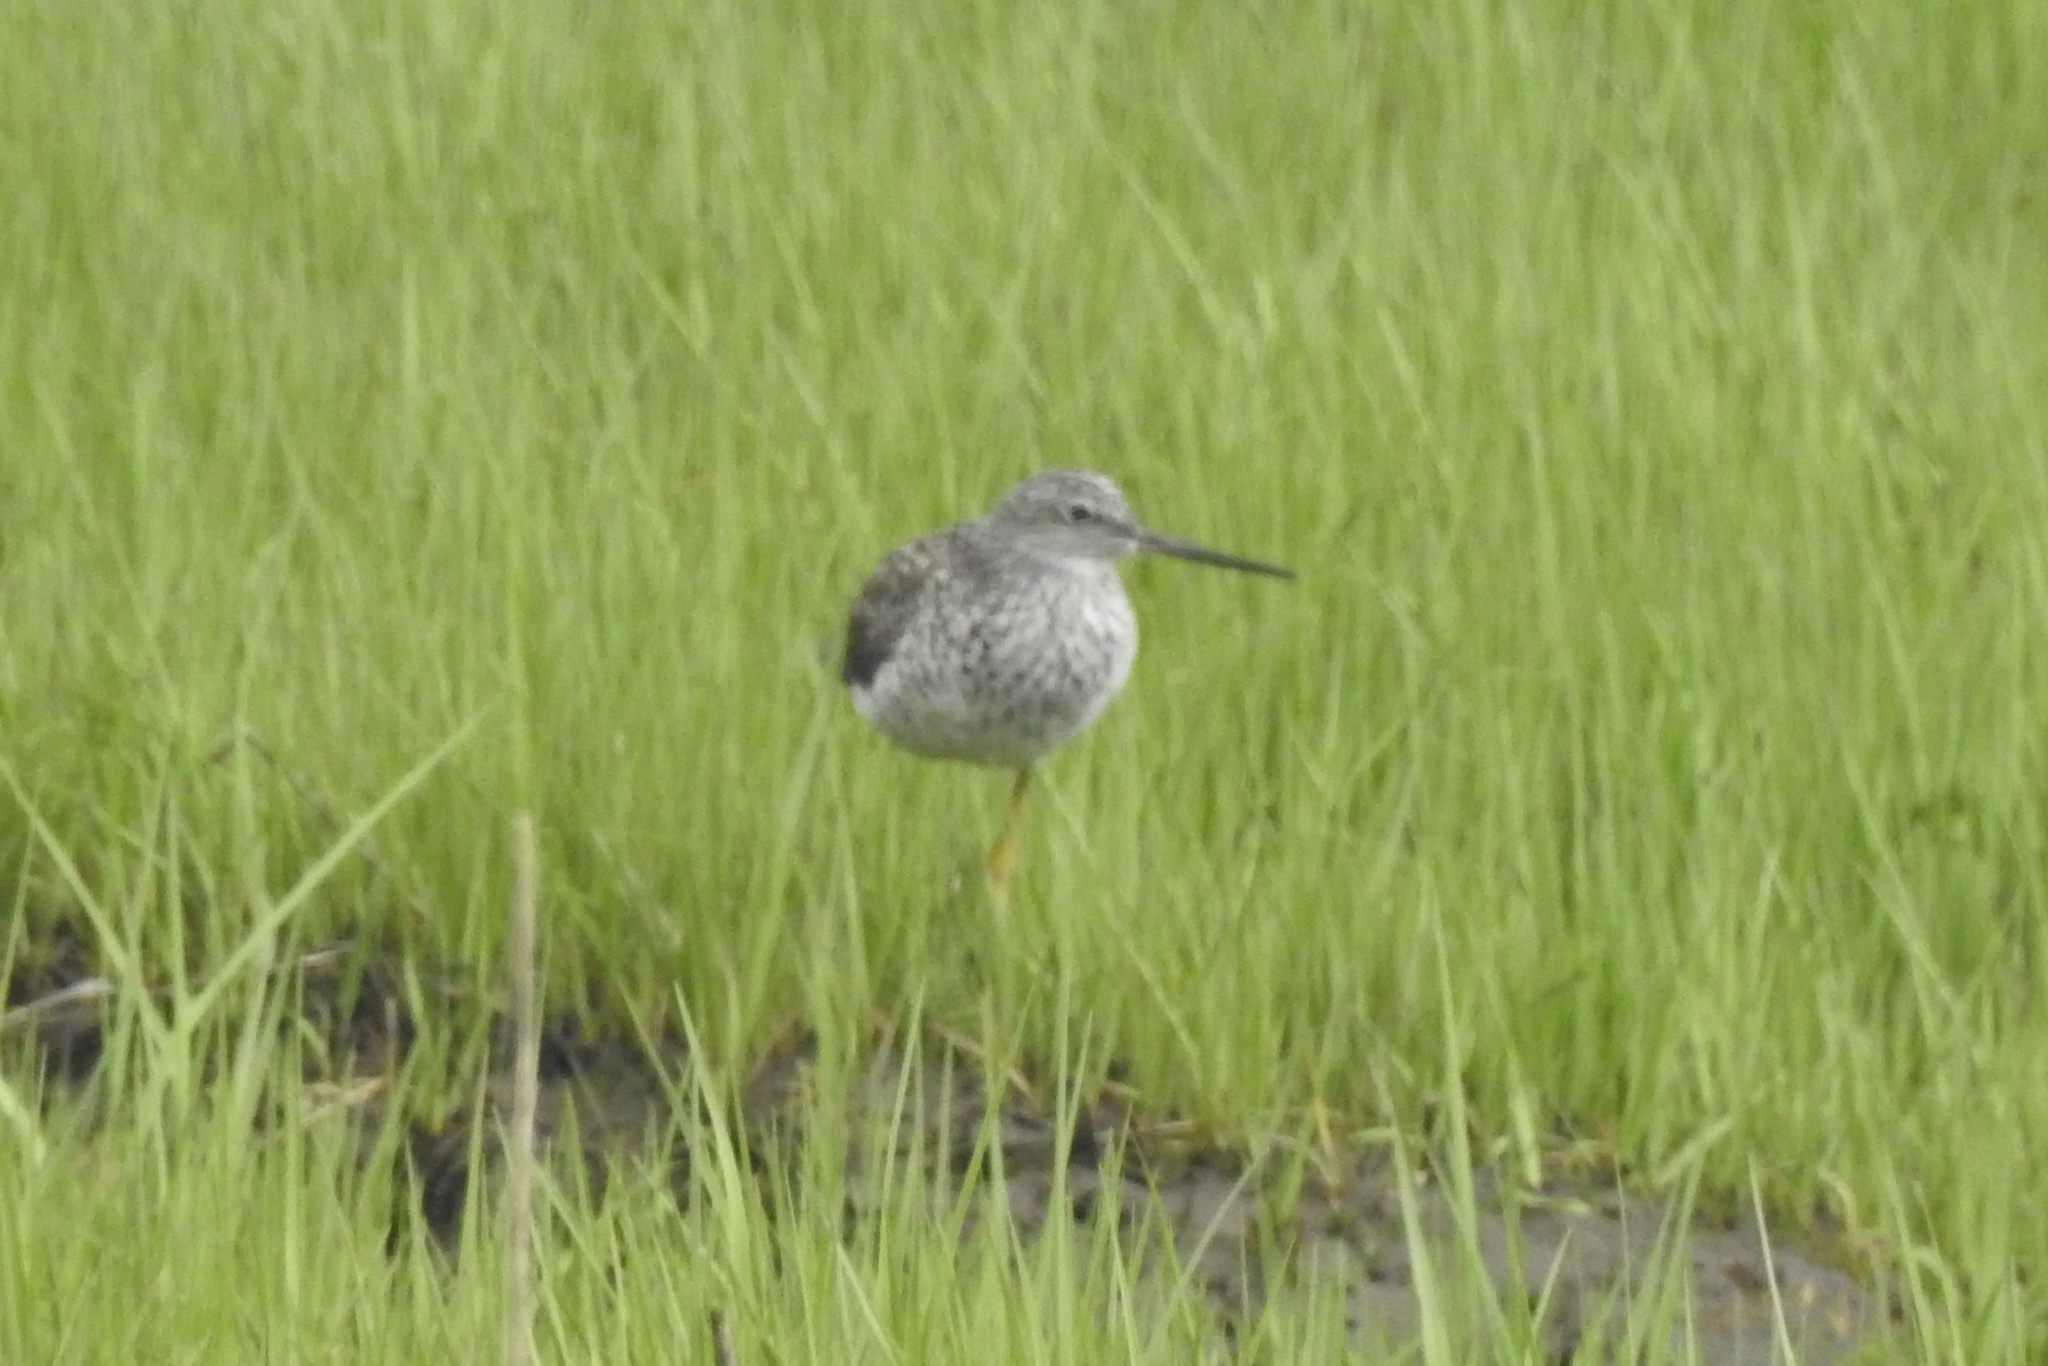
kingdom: Animalia
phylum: Chordata
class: Aves
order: Charadriiformes
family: Scolopacidae
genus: Tringa
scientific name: Tringa melanoleuca
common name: Greater yellowlegs
